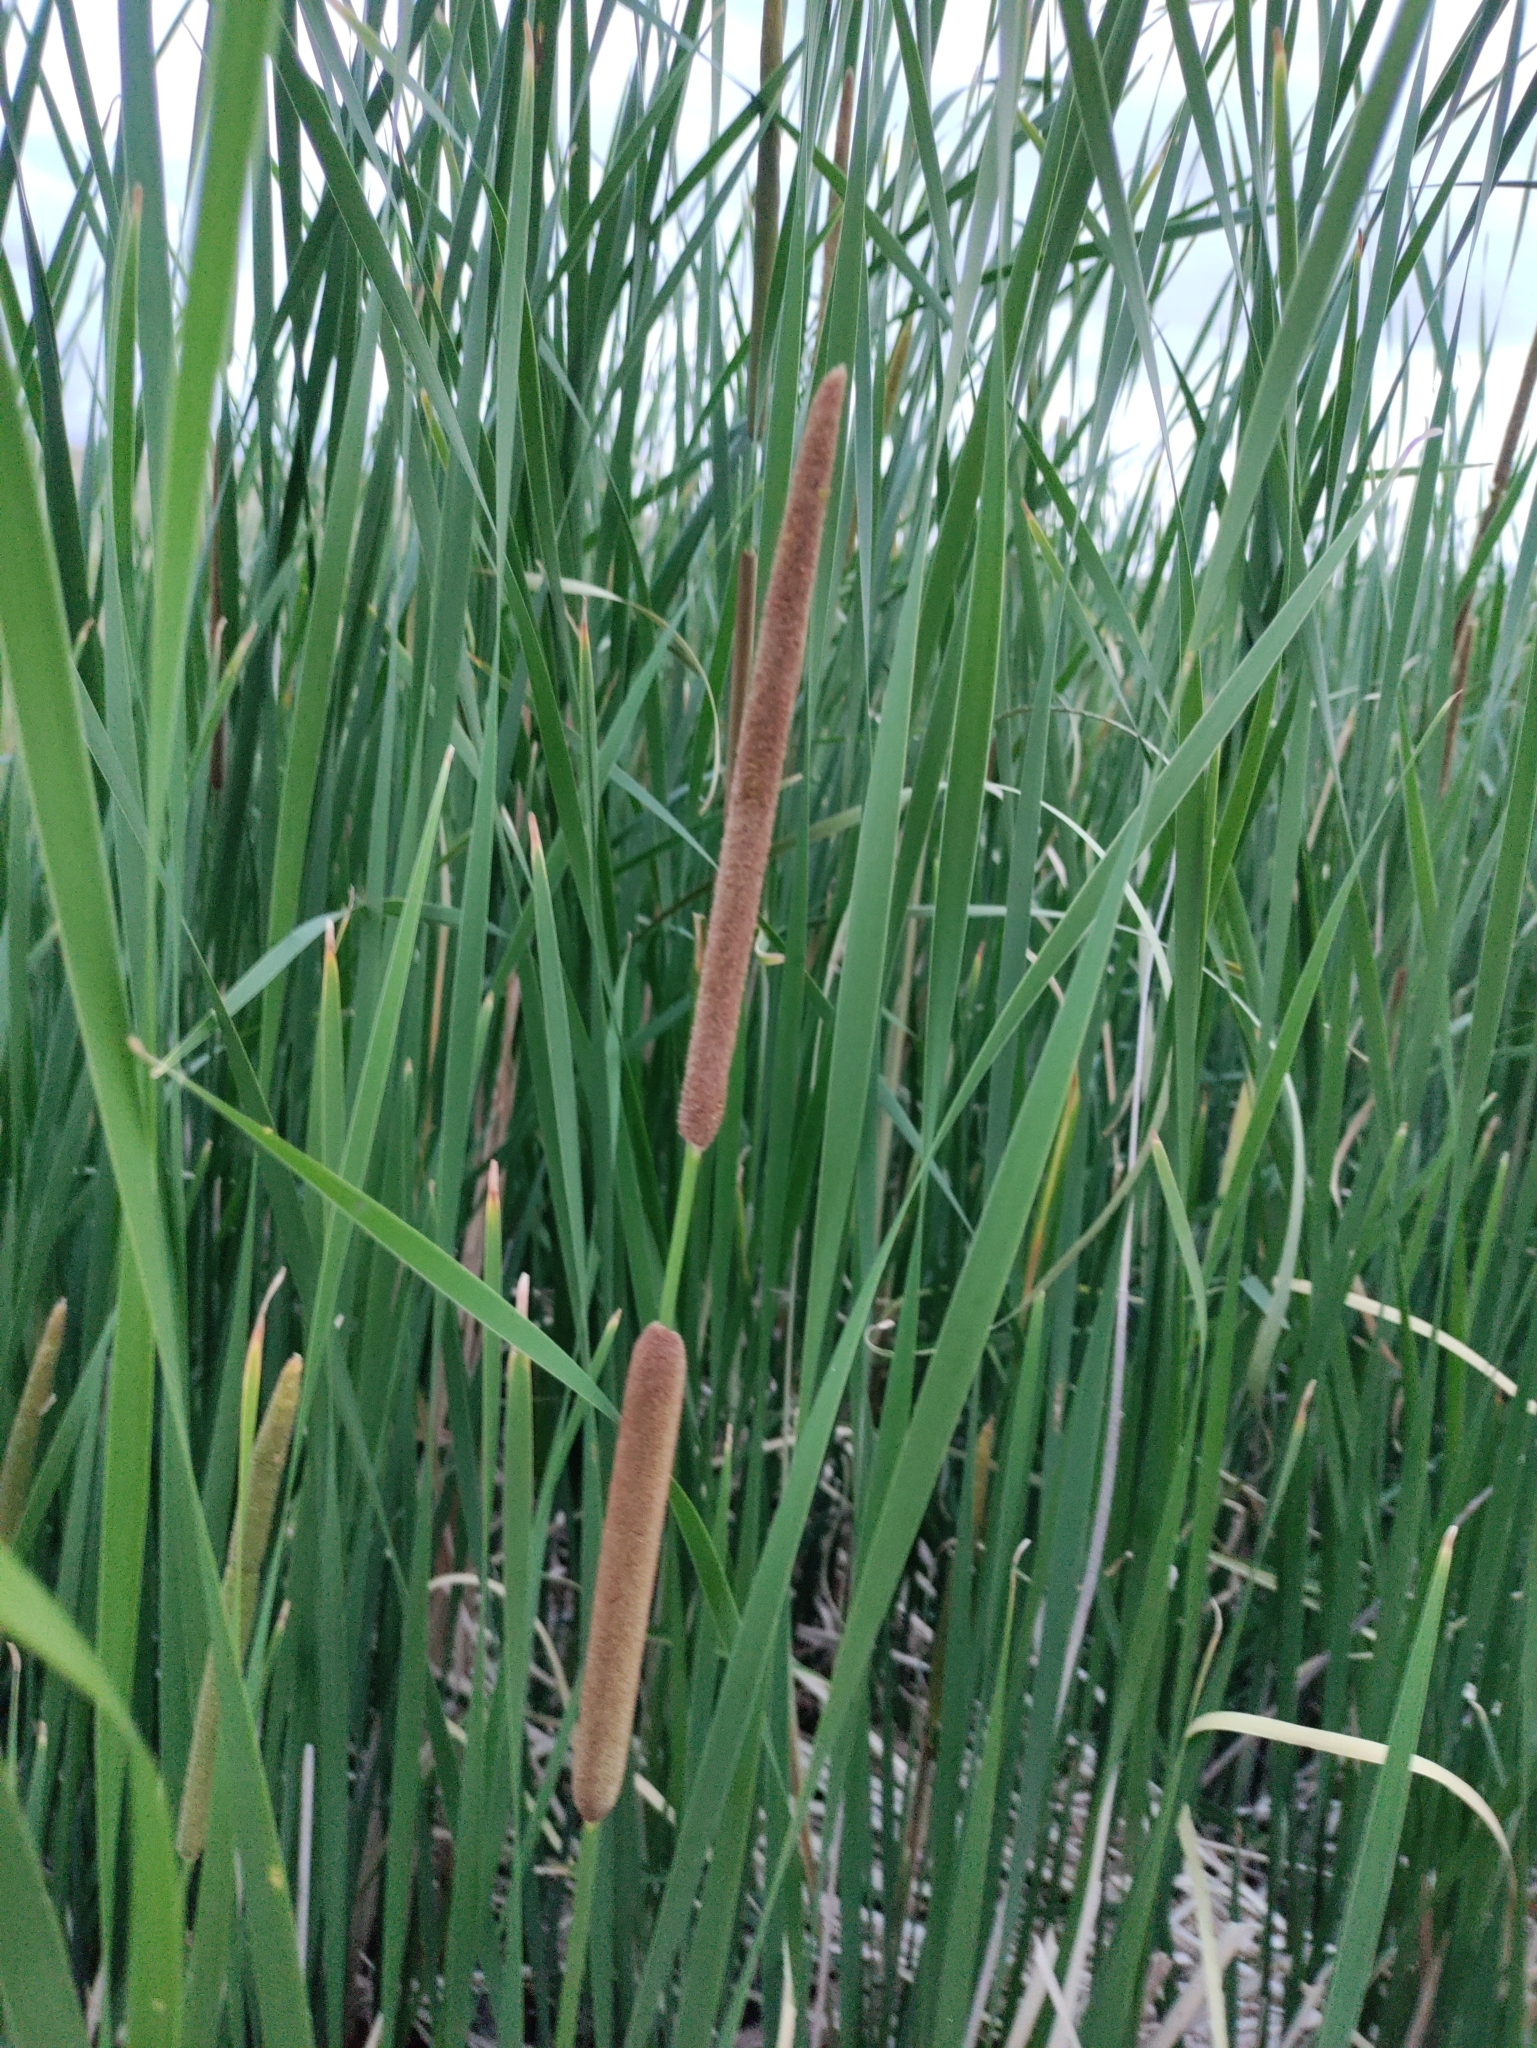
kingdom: Plantae
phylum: Tracheophyta
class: Liliopsida
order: Poales
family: Typhaceae
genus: Typha
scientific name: Typha angustifolia
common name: Lesser bulrush
